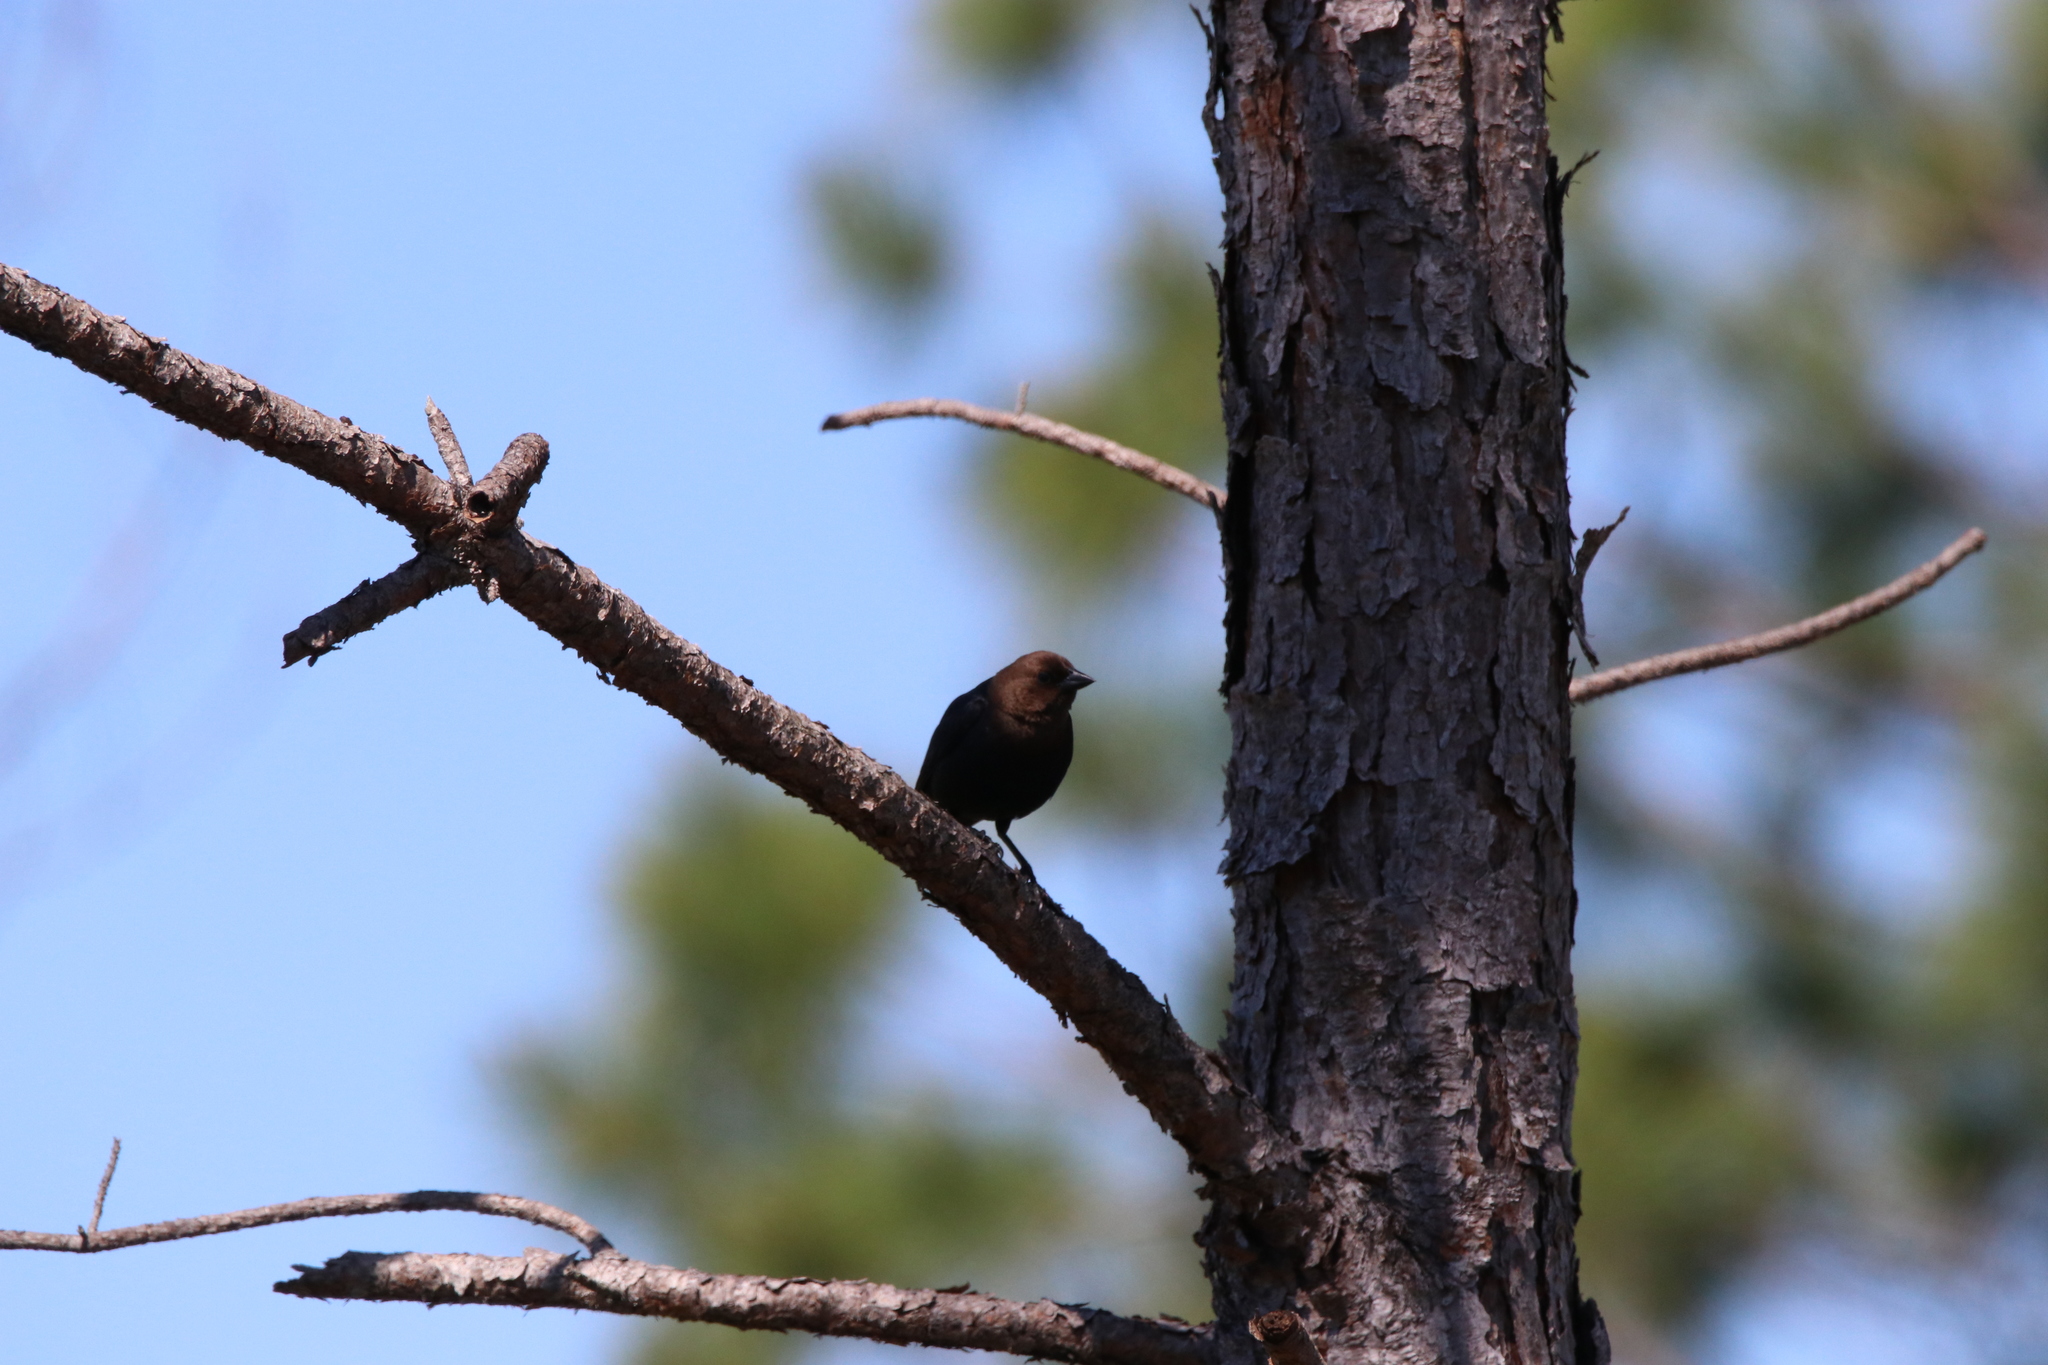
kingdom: Animalia
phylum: Chordata
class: Aves
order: Passeriformes
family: Icteridae
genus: Molothrus
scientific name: Molothrus ater
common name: Brown-headed cowbird
